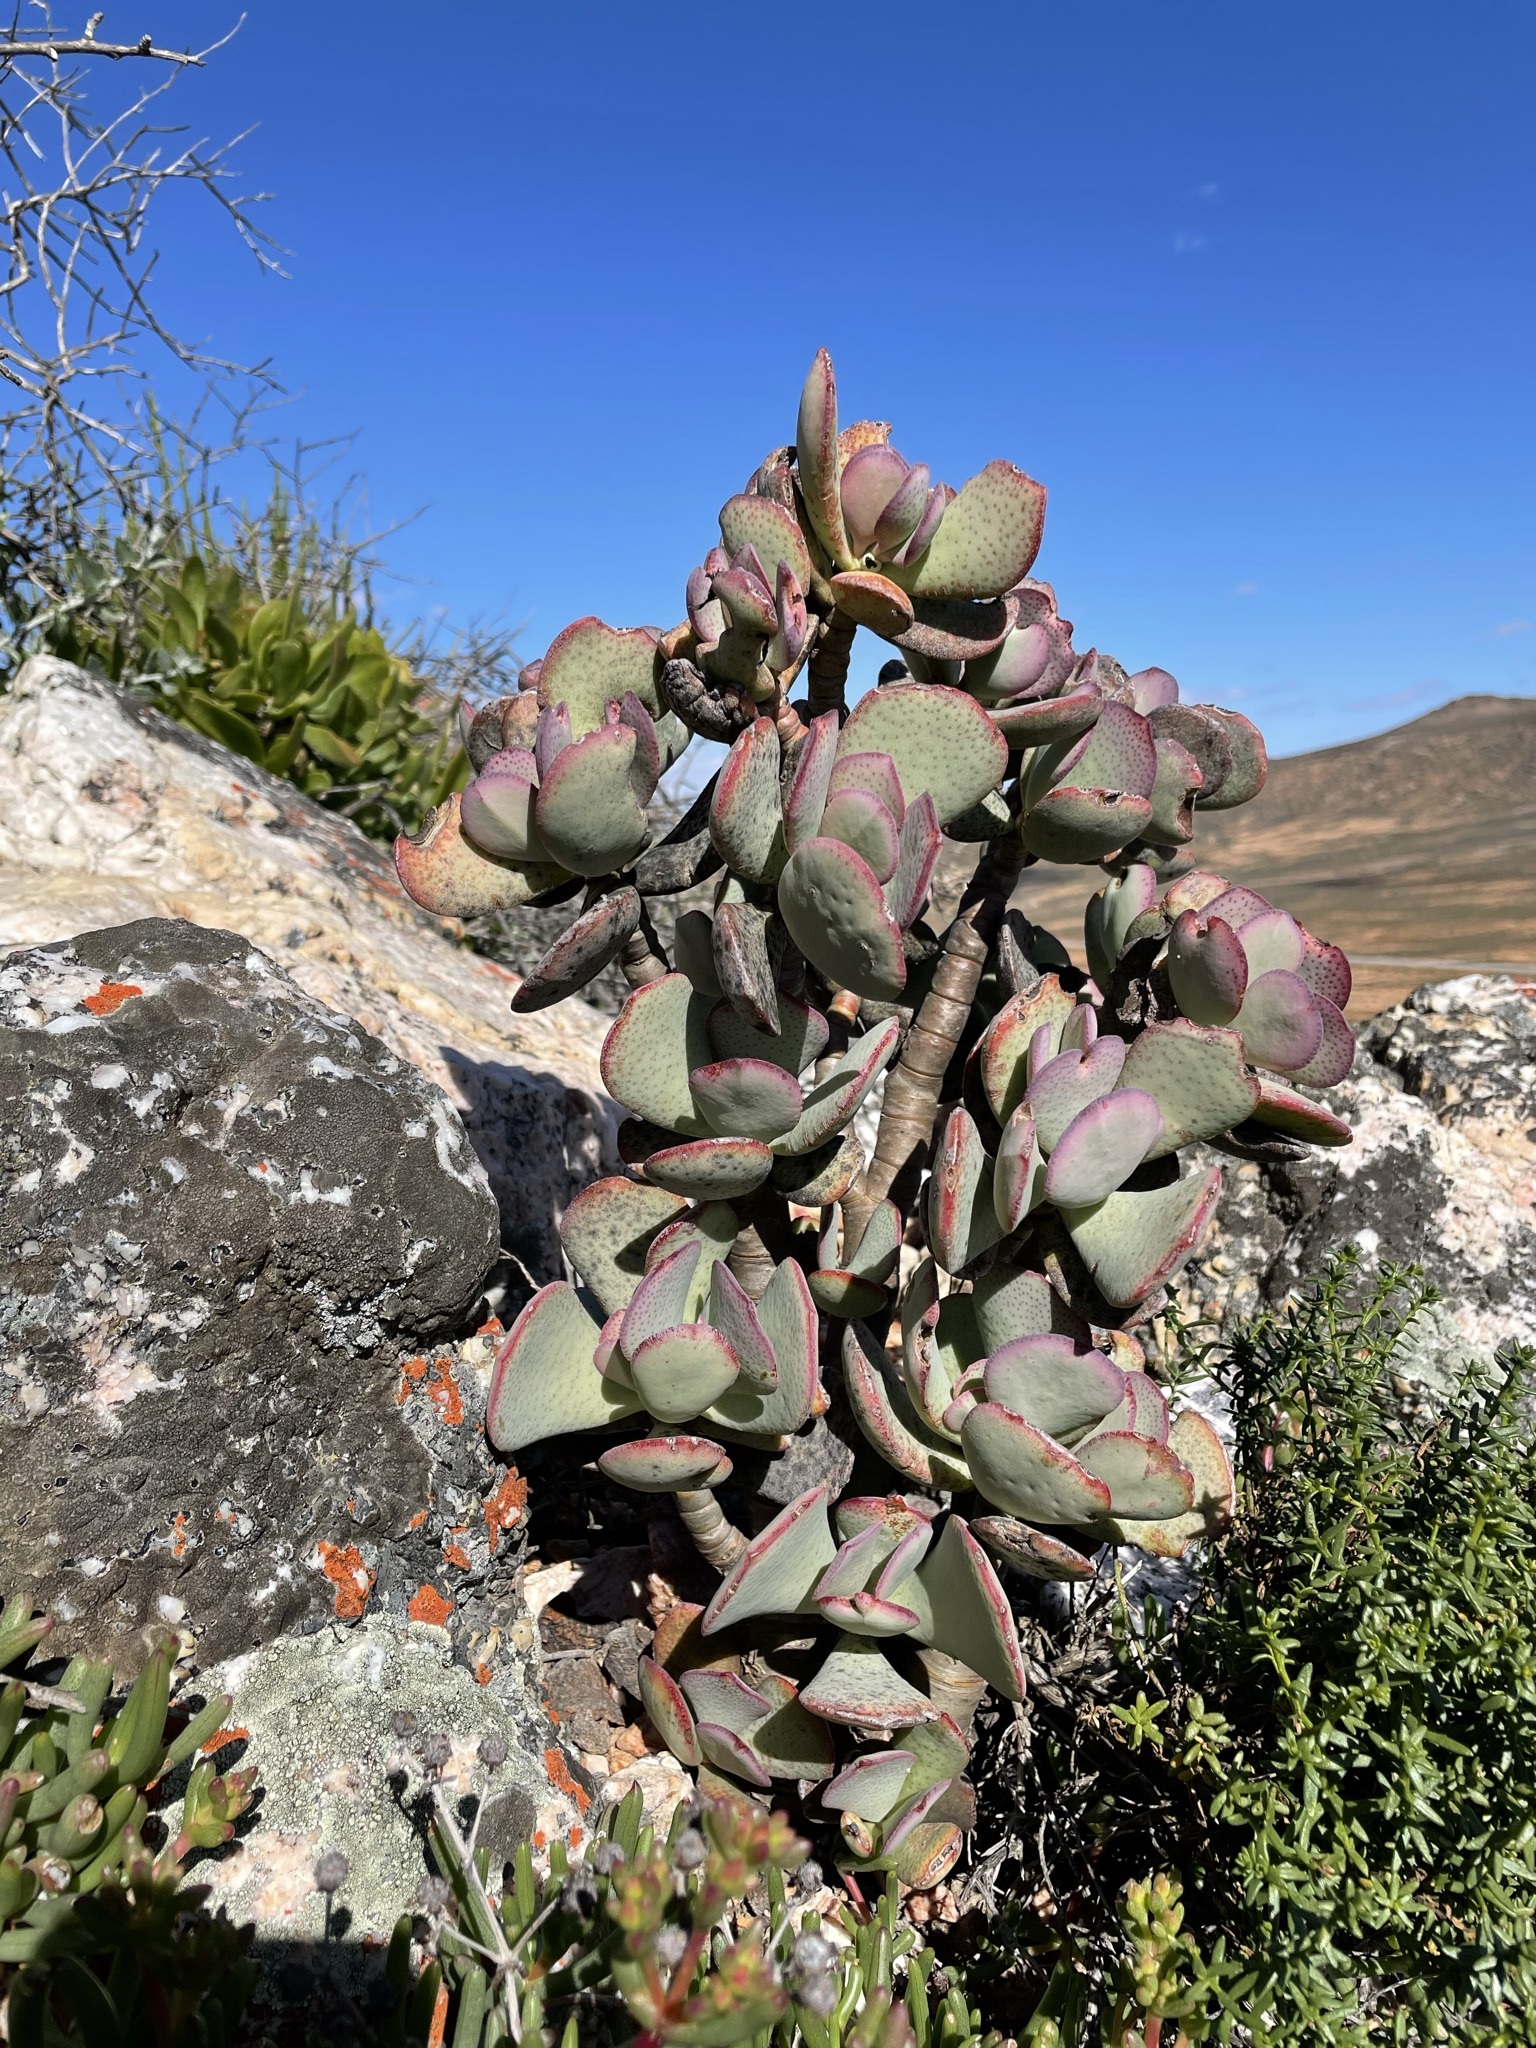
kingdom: Plantae
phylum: Tracheophyta
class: Magnoliopsida
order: Saxifragales
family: Crassulaceae
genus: Crassula
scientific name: Crassula arborescens
